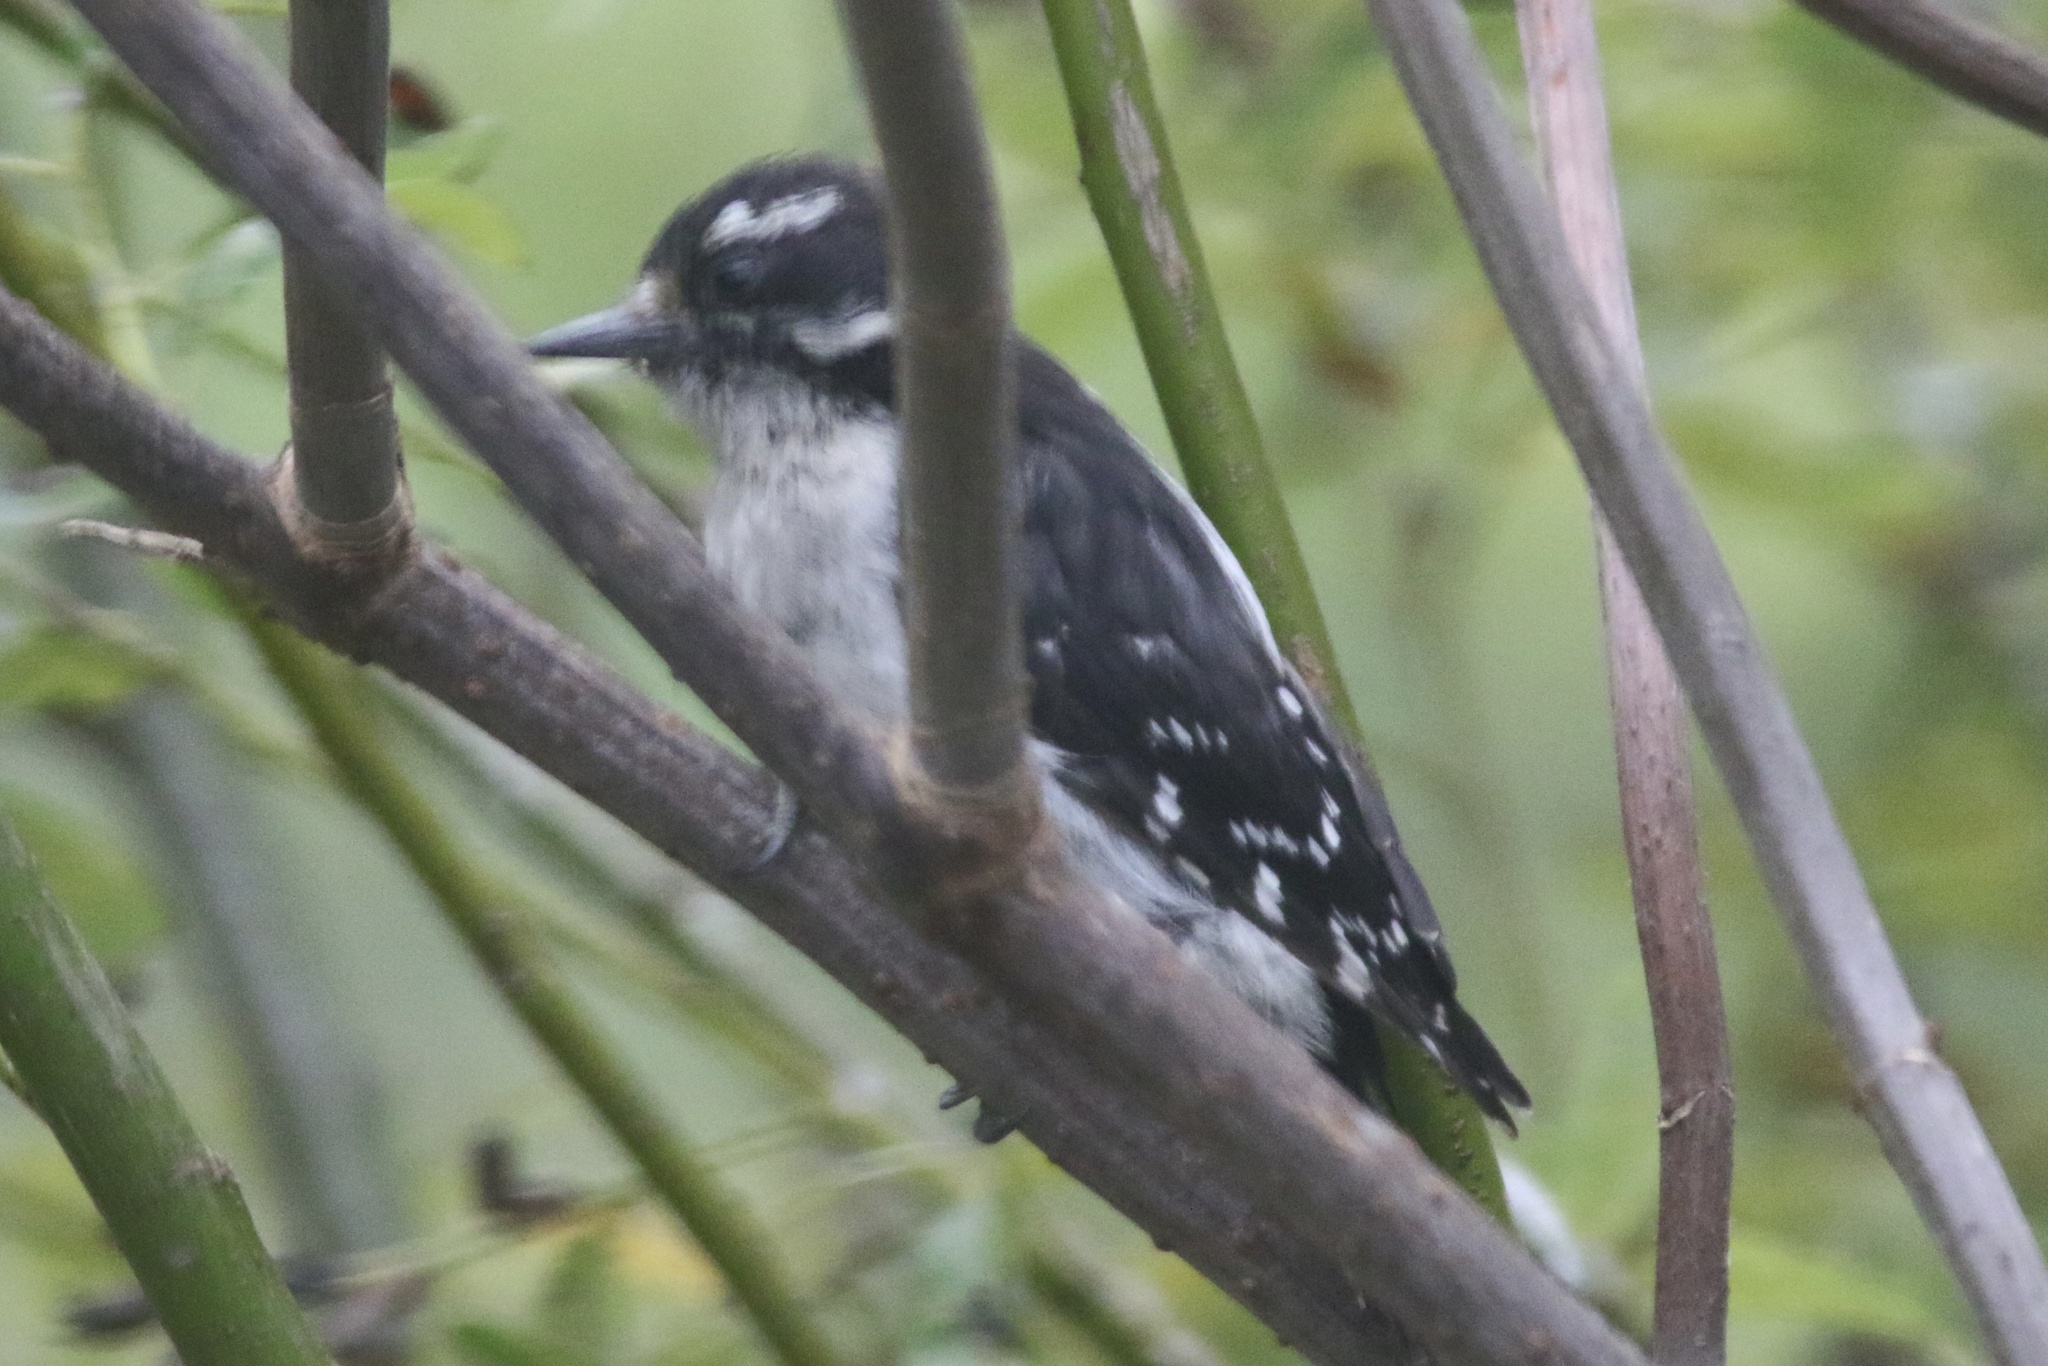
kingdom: Animalia
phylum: Chordata
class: Aves
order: Piciformes
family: Picidae
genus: Dryobates
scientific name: Dryobates pubescens
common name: Downy woodpecker
